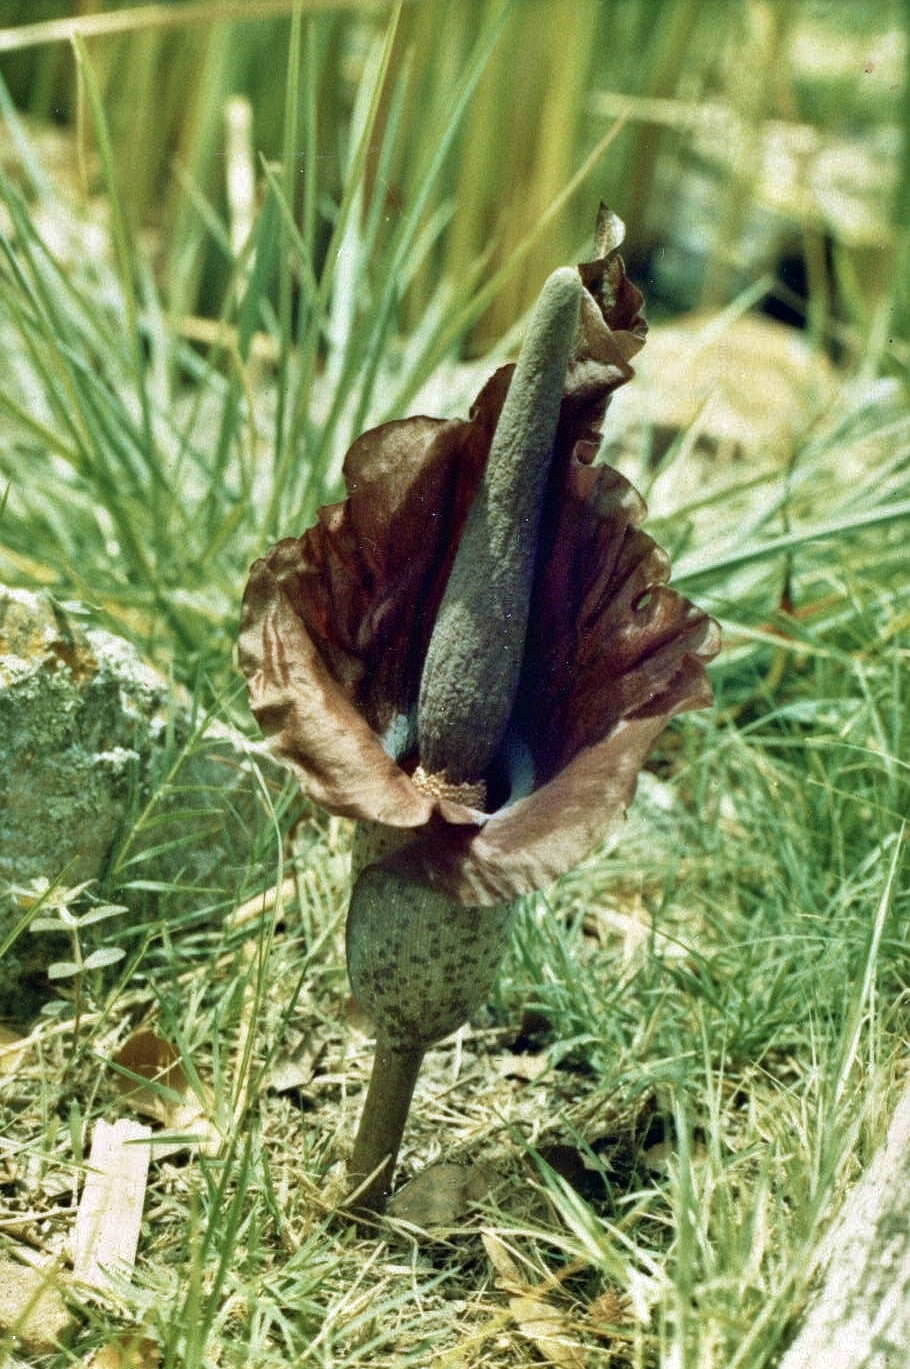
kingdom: Plantae
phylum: Tracheophyta
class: Liliopsida
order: Alismatales
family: Araceae
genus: Amorphophallus
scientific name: Amorphophallus mossambicensis
